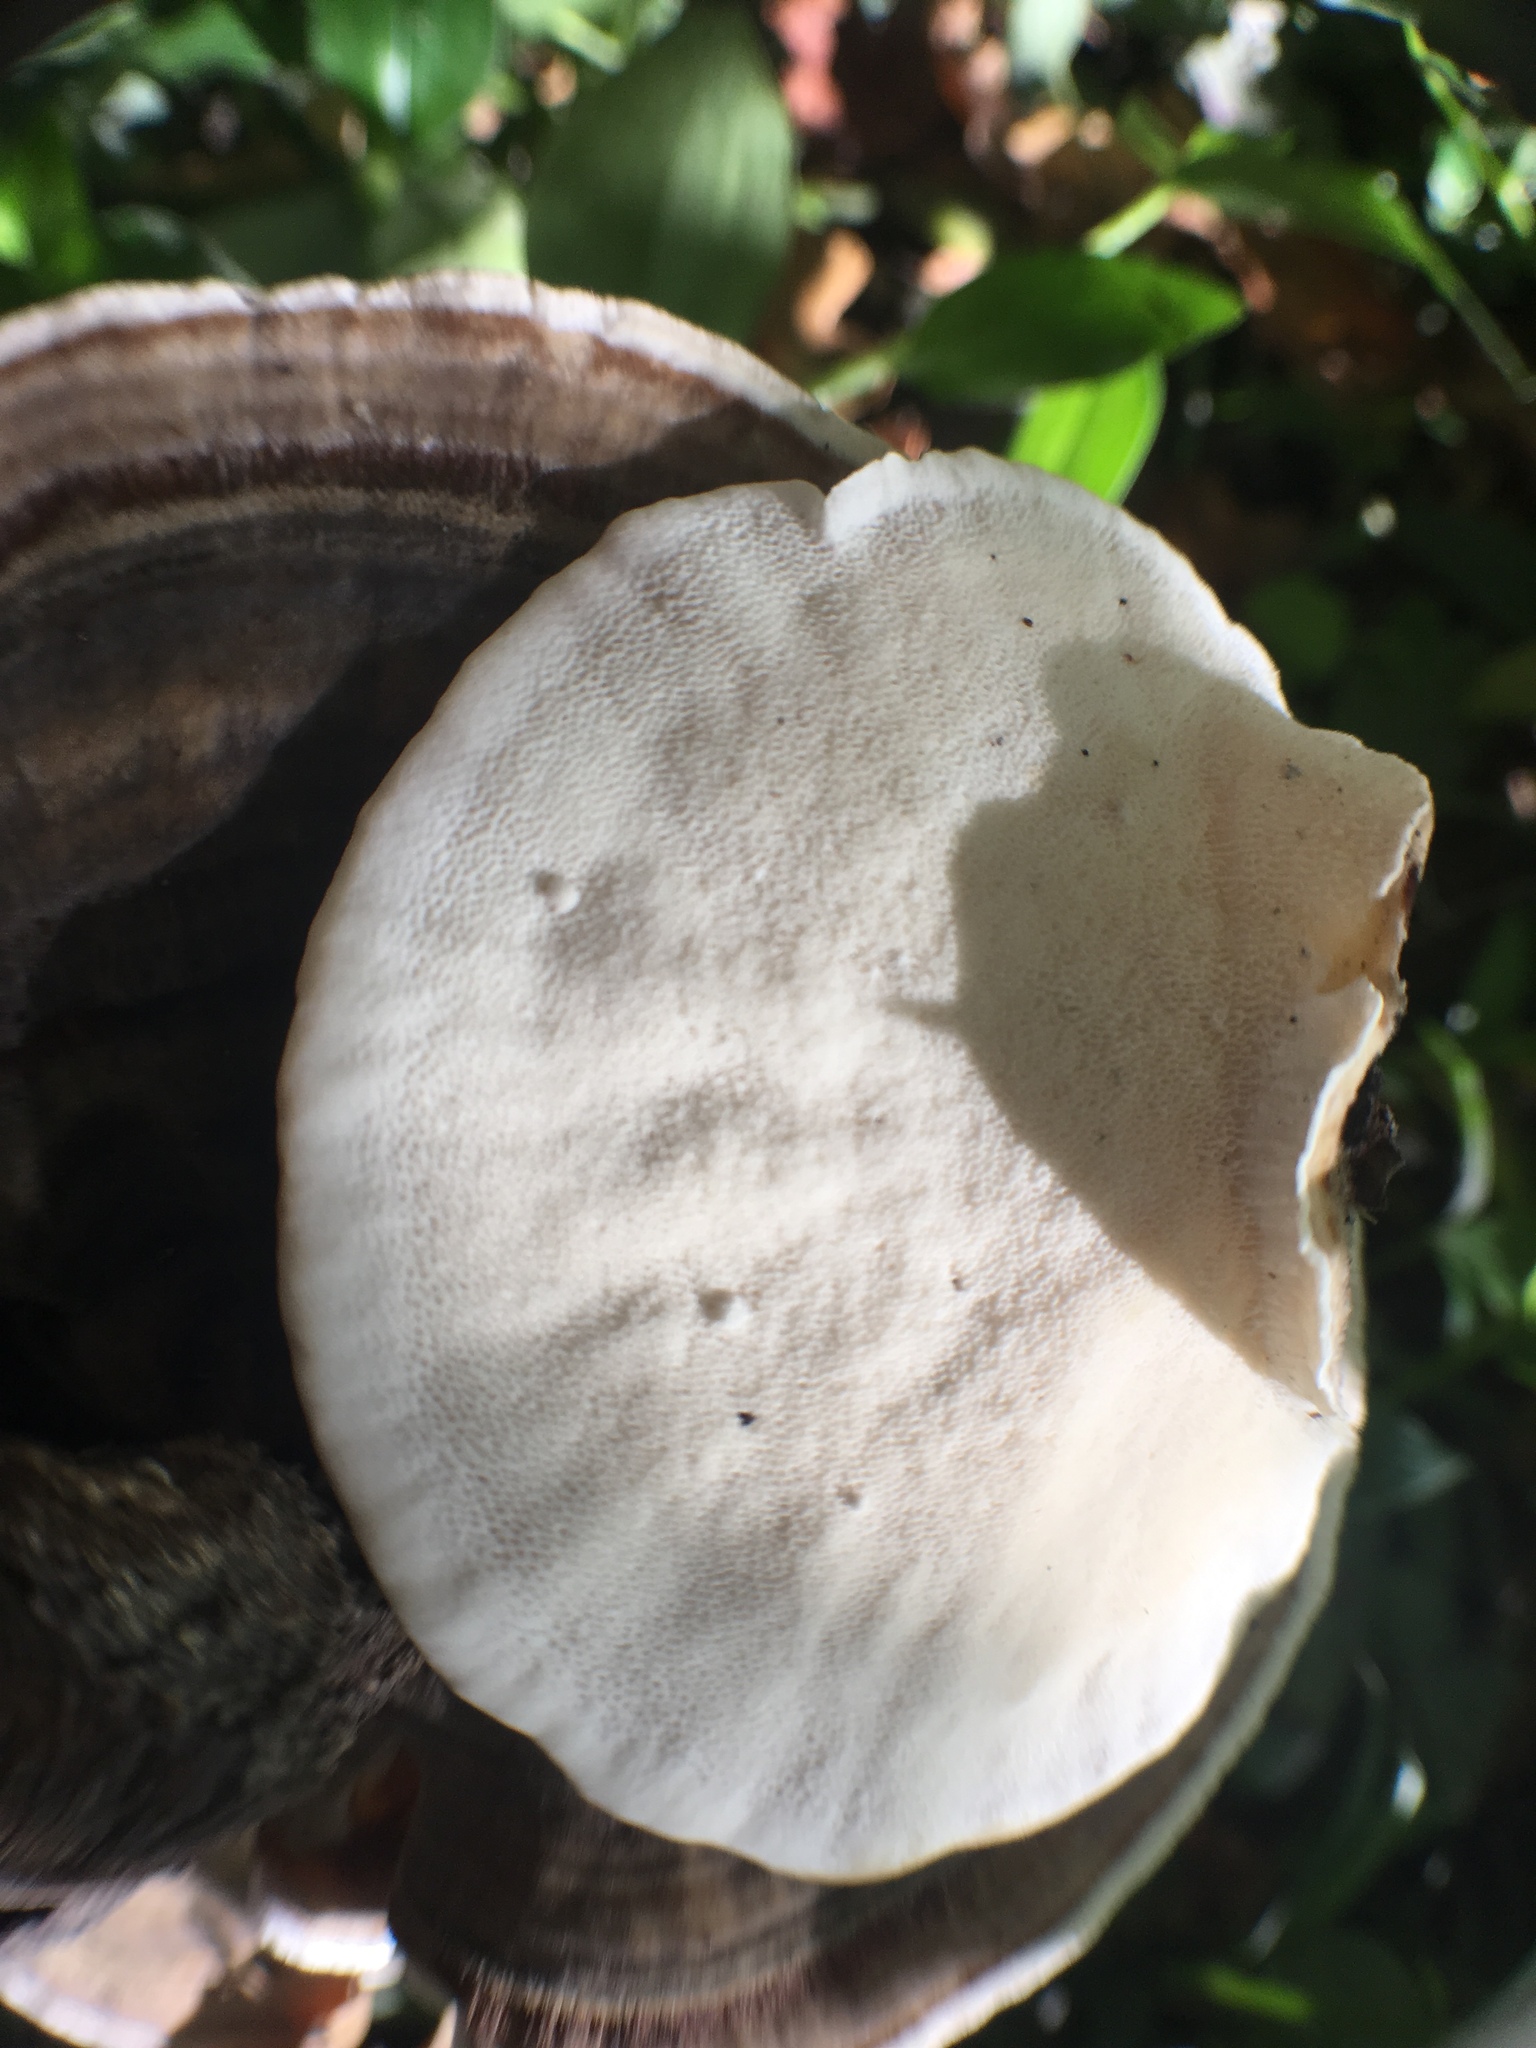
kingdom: Fungi
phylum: Basidiomycota
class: Agaricomycetes
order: Polyporales
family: Polyporaceae
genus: Trametes
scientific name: Trametes versicolor
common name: Turkeytail
